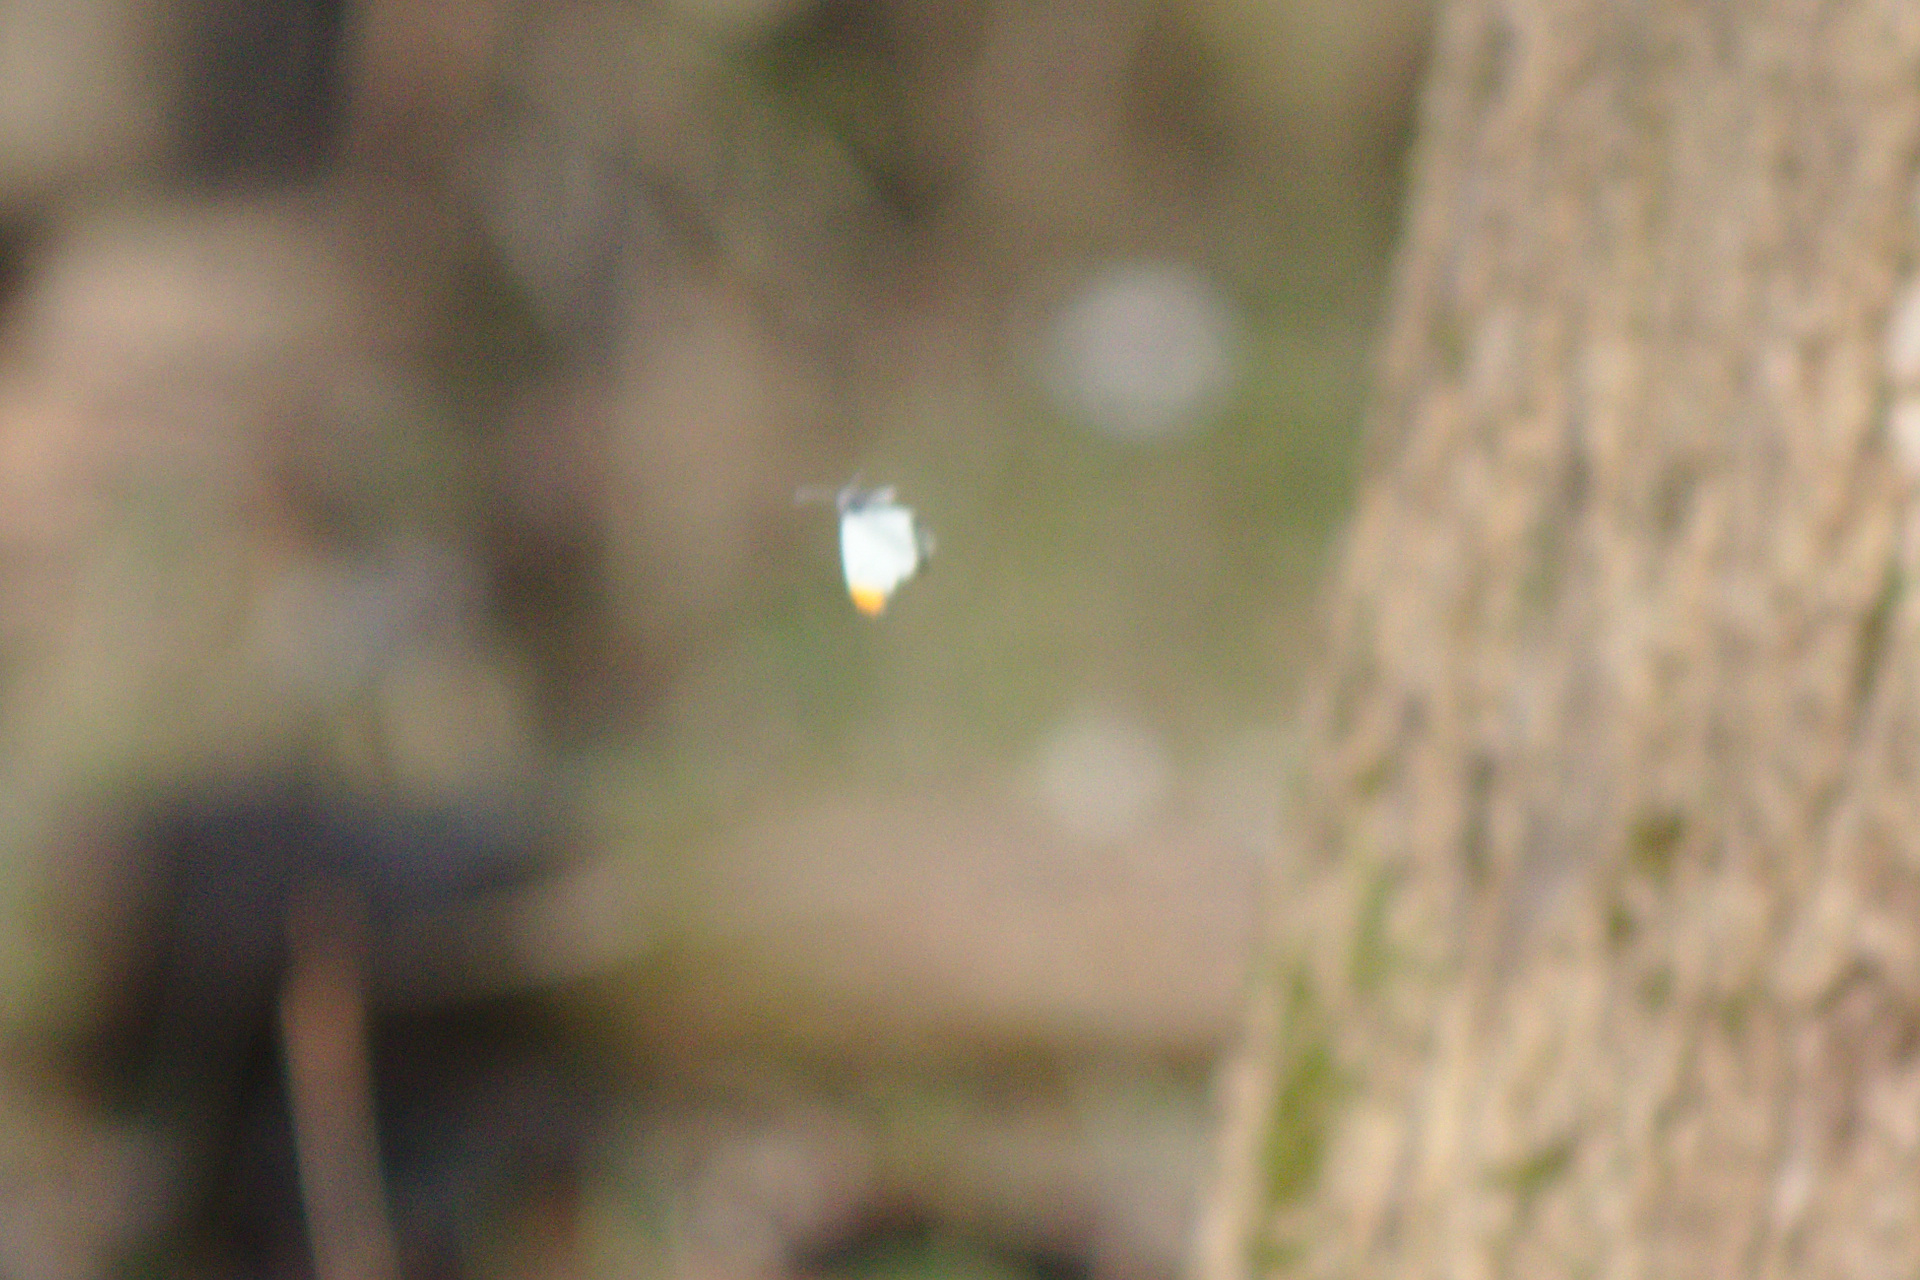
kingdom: Animalia
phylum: Arthropoda
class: Insecta
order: Lepidoptera
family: Pieridae
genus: Anthocharis
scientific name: Anthocharis midea
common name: Falcate orangetip
